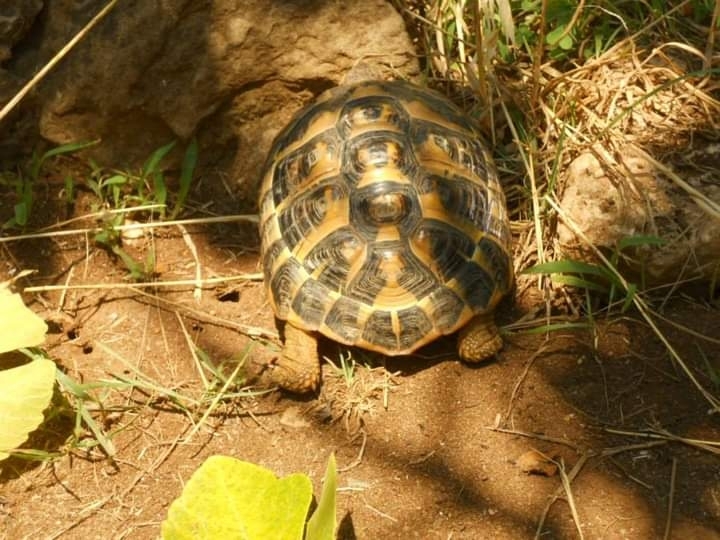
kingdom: Animalia
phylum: Chordata
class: Testudines
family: Testudinidae
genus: Testudo
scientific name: Testudo hermanni
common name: Hermann's tortoise
